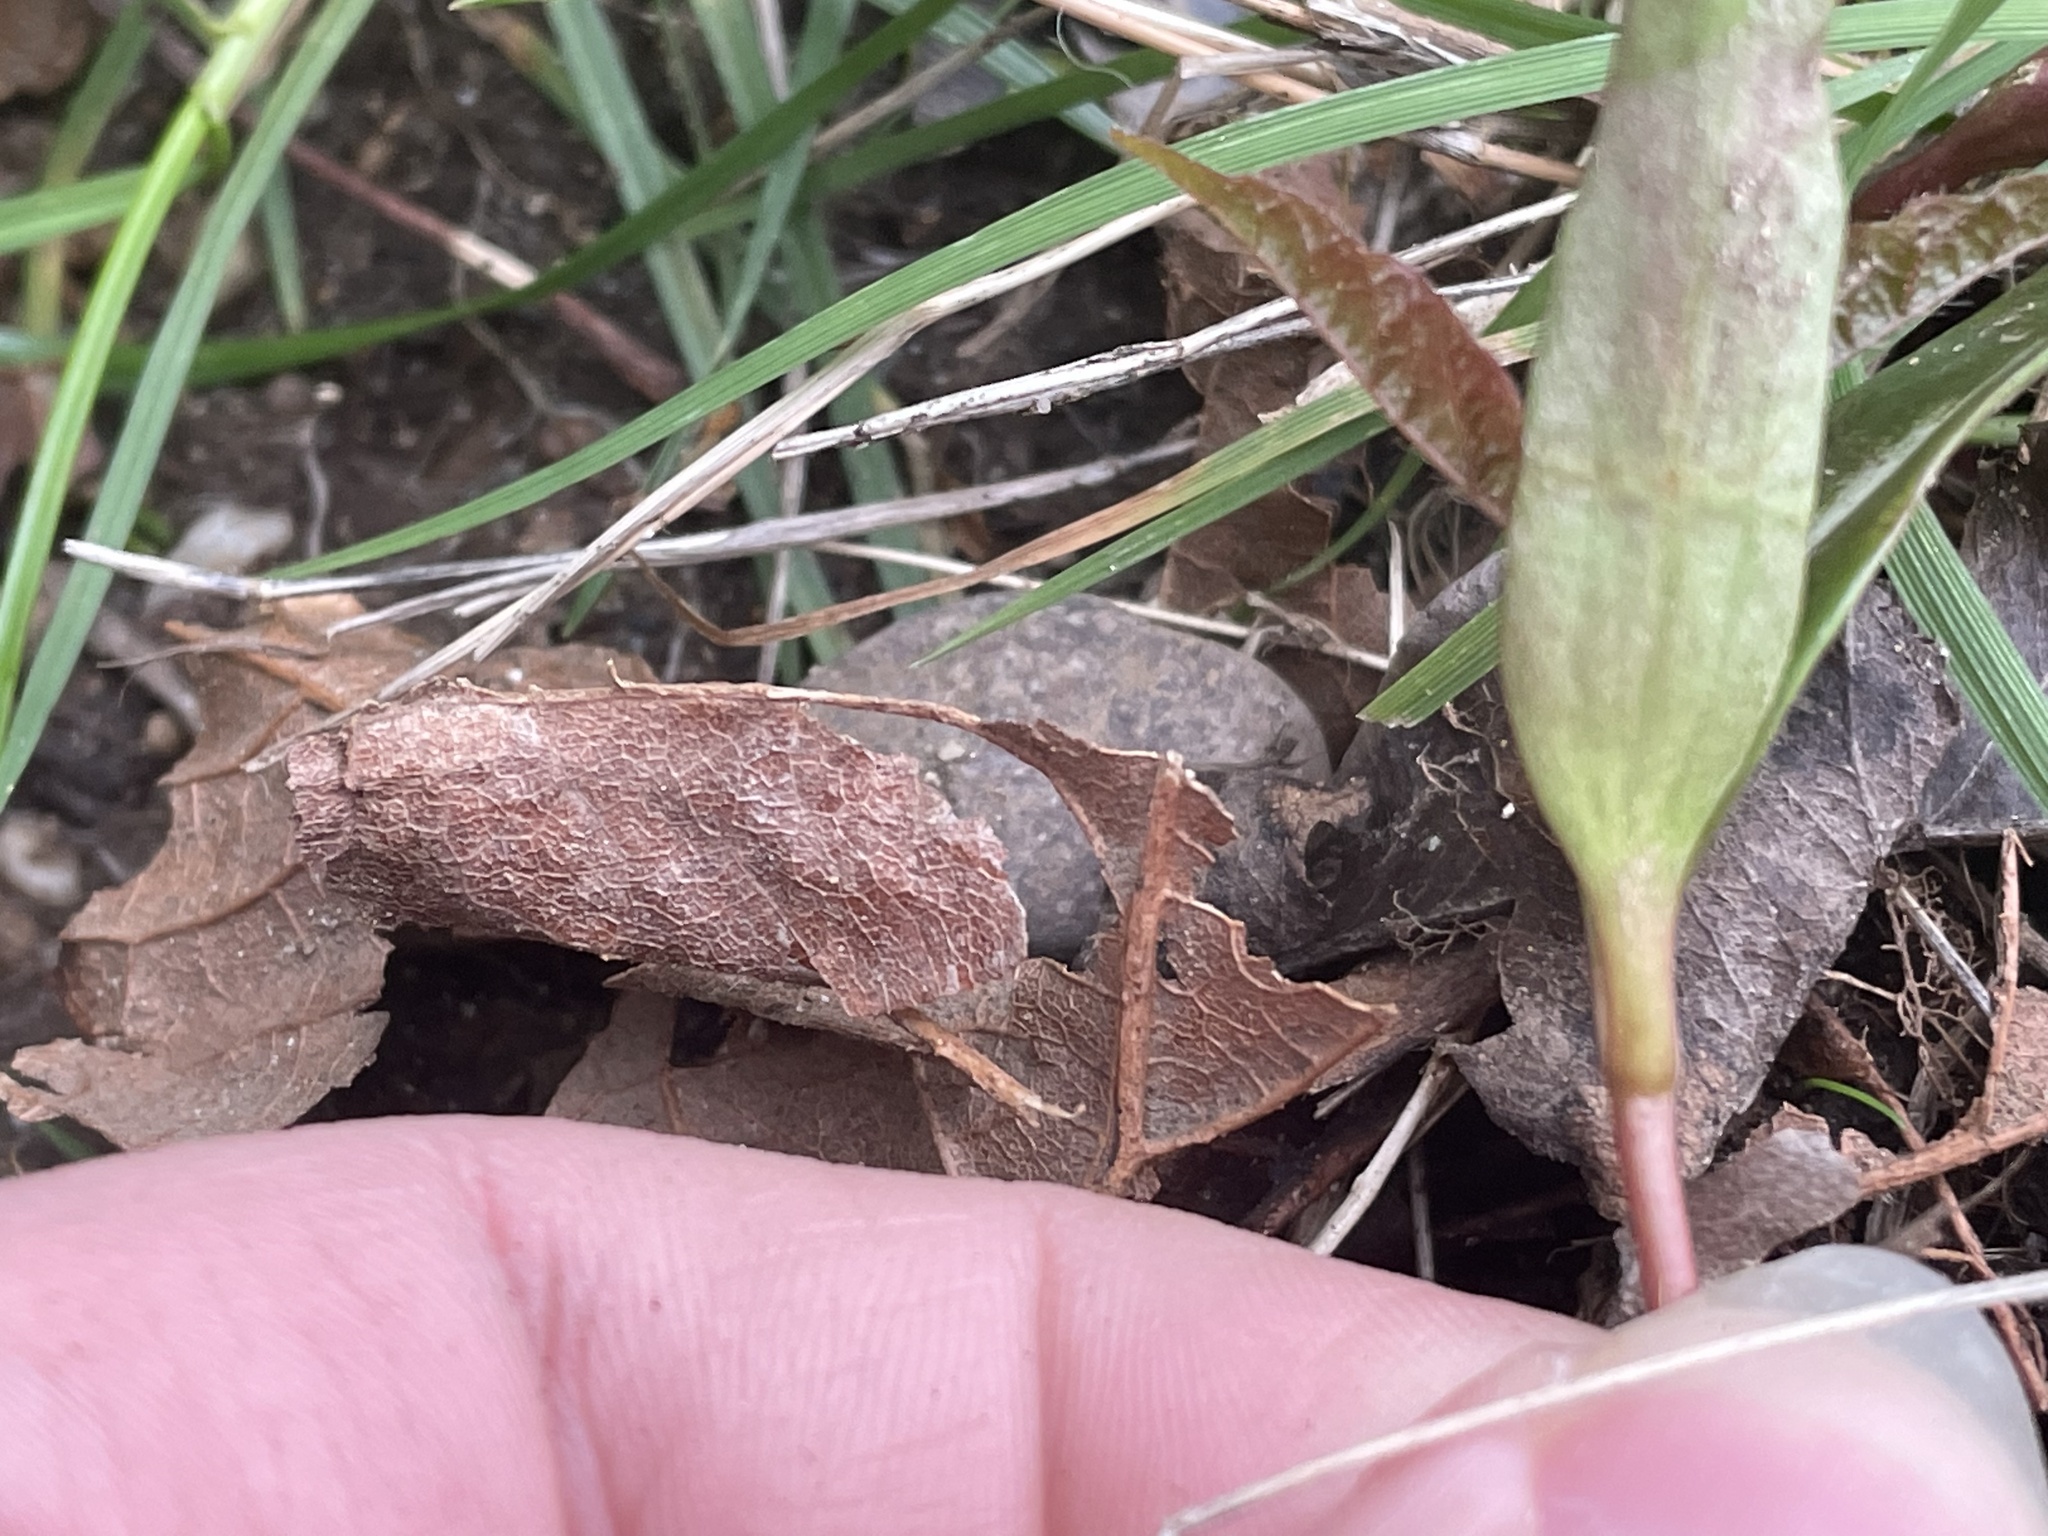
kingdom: Plantae
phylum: Tracheophyta
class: Magnoliopsida
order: Sapindales
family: Sapindaceae
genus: Acer
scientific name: Acer macrophyllum
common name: Oregon maple
